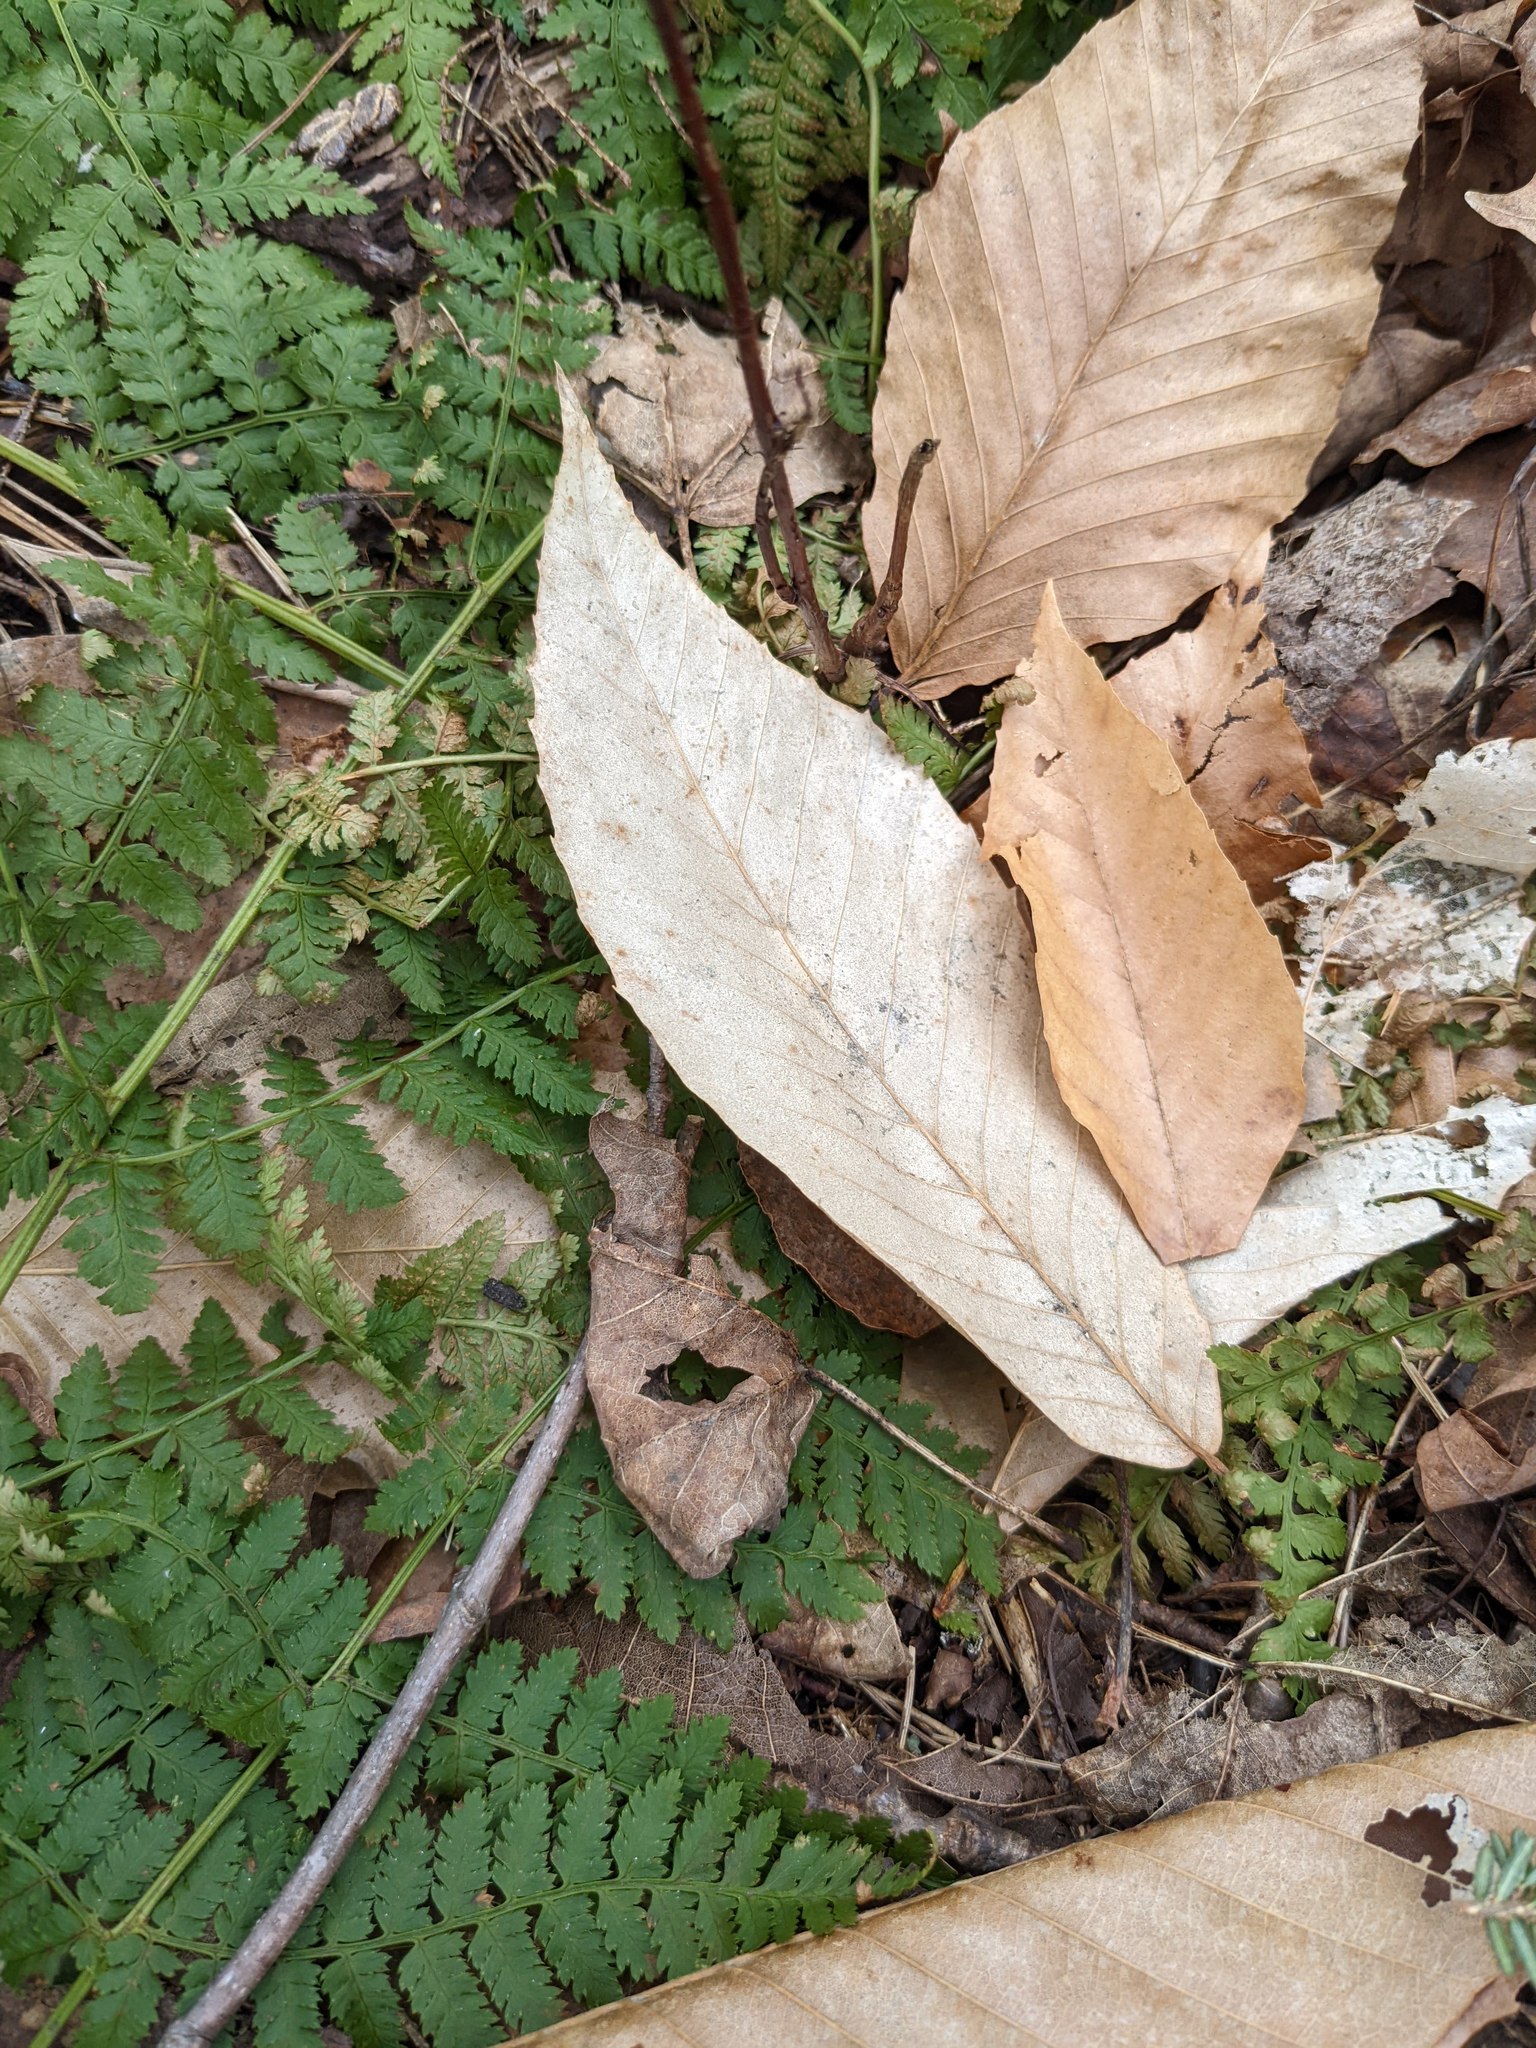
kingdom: Plantae
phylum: Tracheophyta
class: Magnoliopsida
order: Fagales
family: Fagaceae
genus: Fagus
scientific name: Fagus grandifolia
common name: American beech
